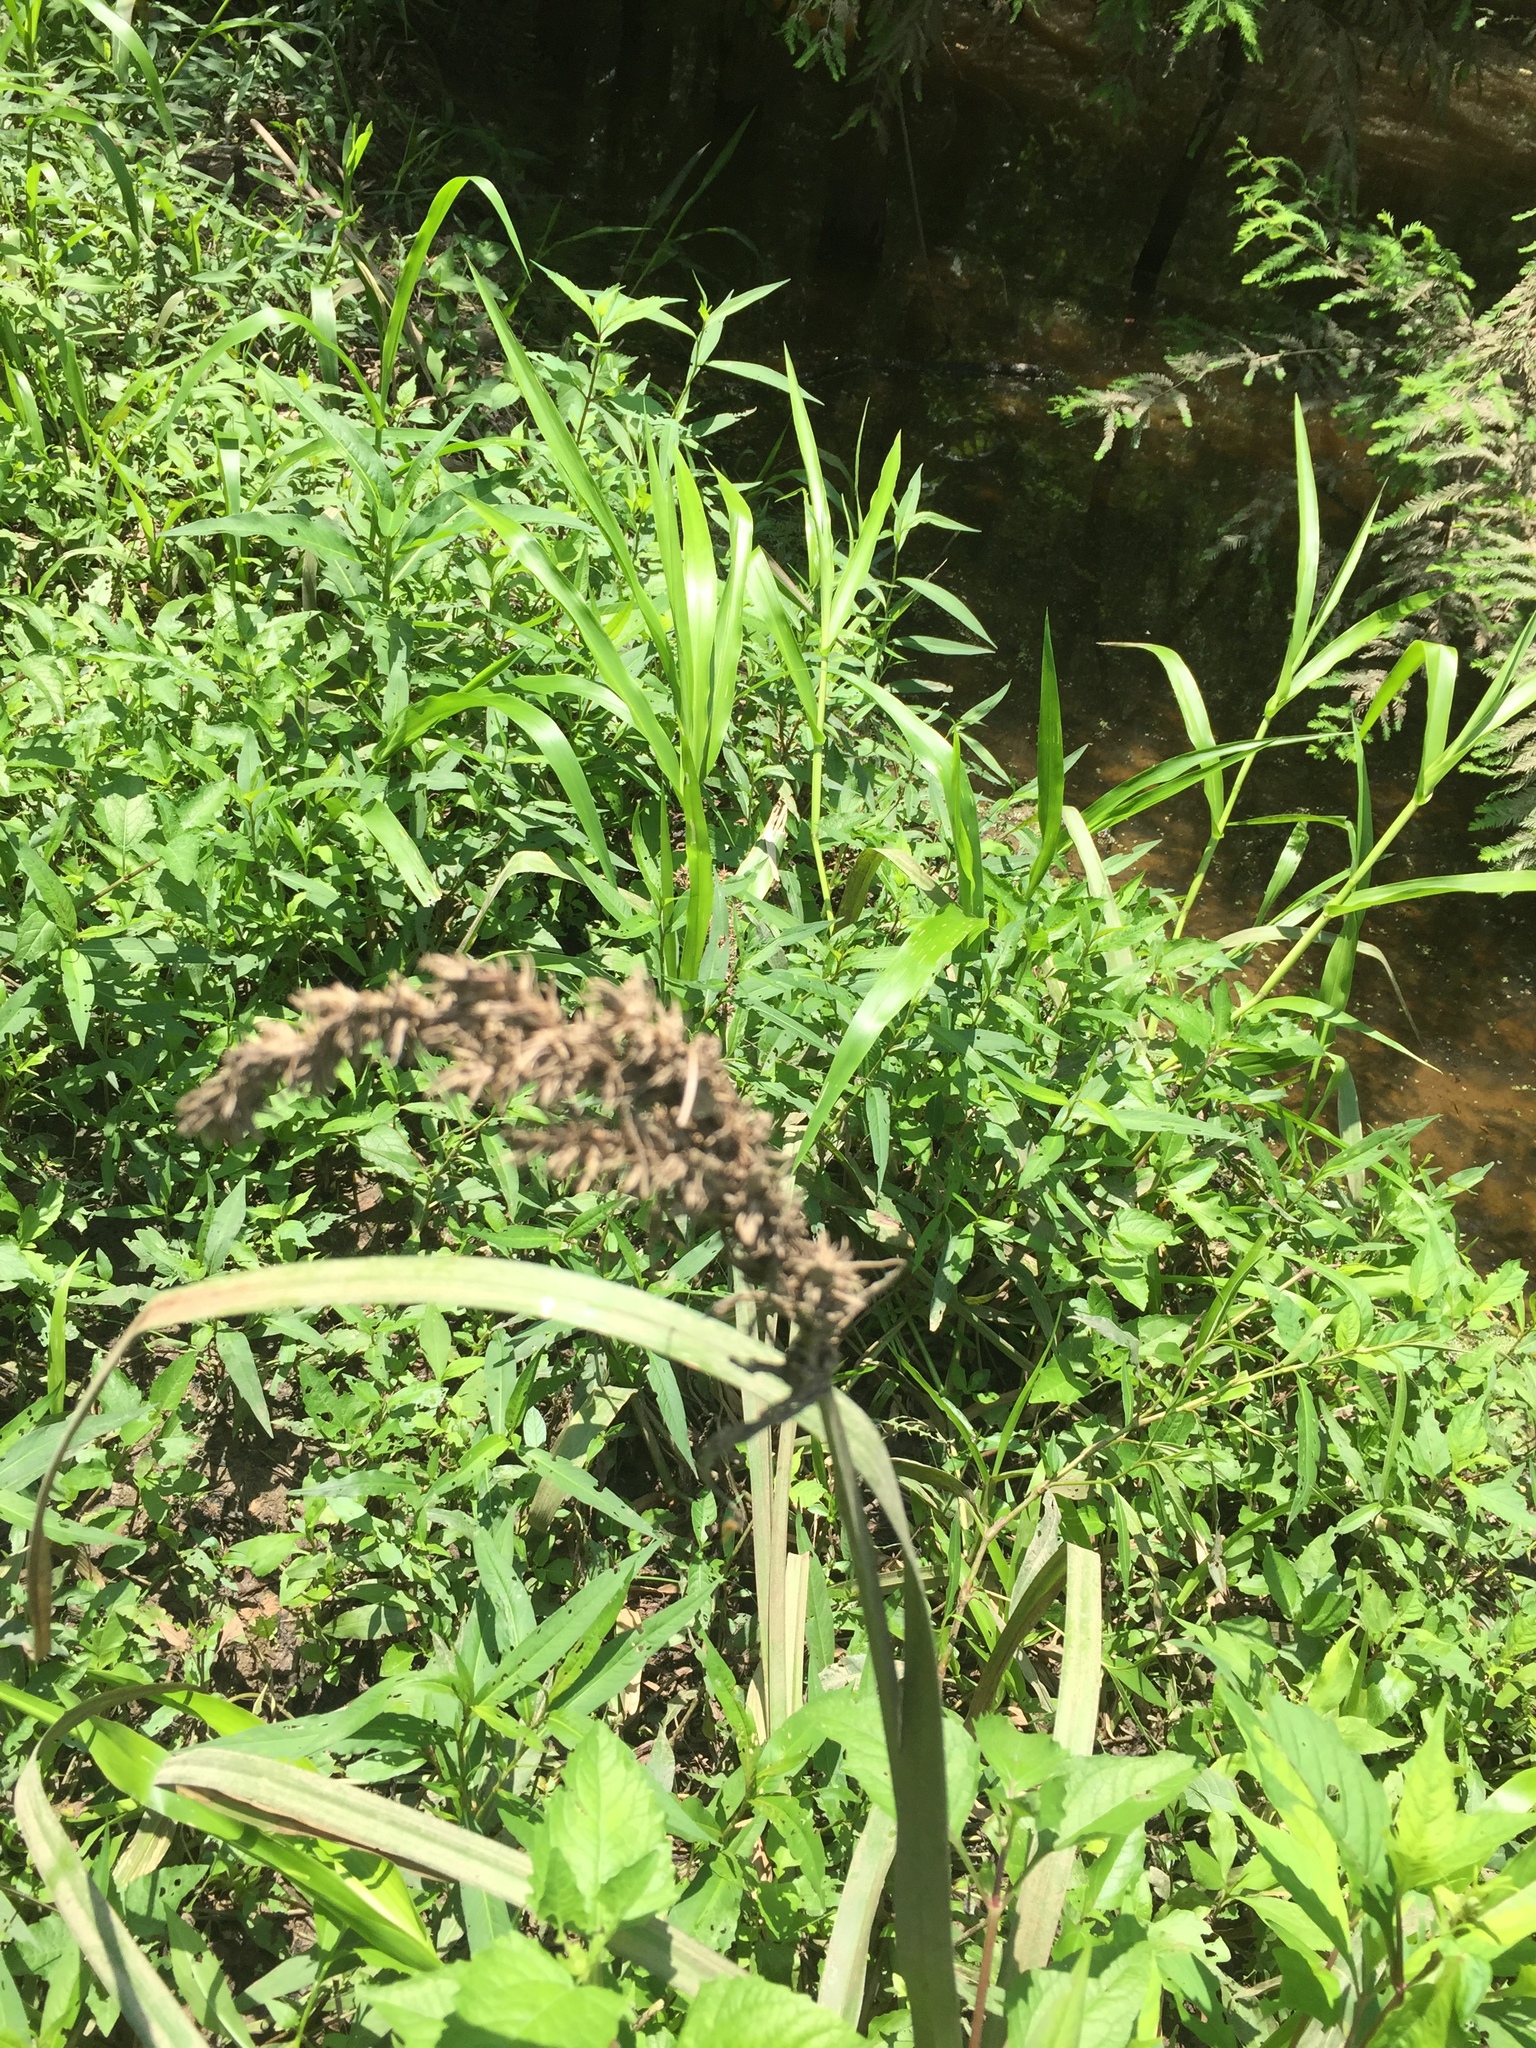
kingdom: Plantae
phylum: Tracheophyta
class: Liliopsida
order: Poales
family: Cyperaceae
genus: Carex
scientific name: Carex crus-corvi
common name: Crow-spur sedge
